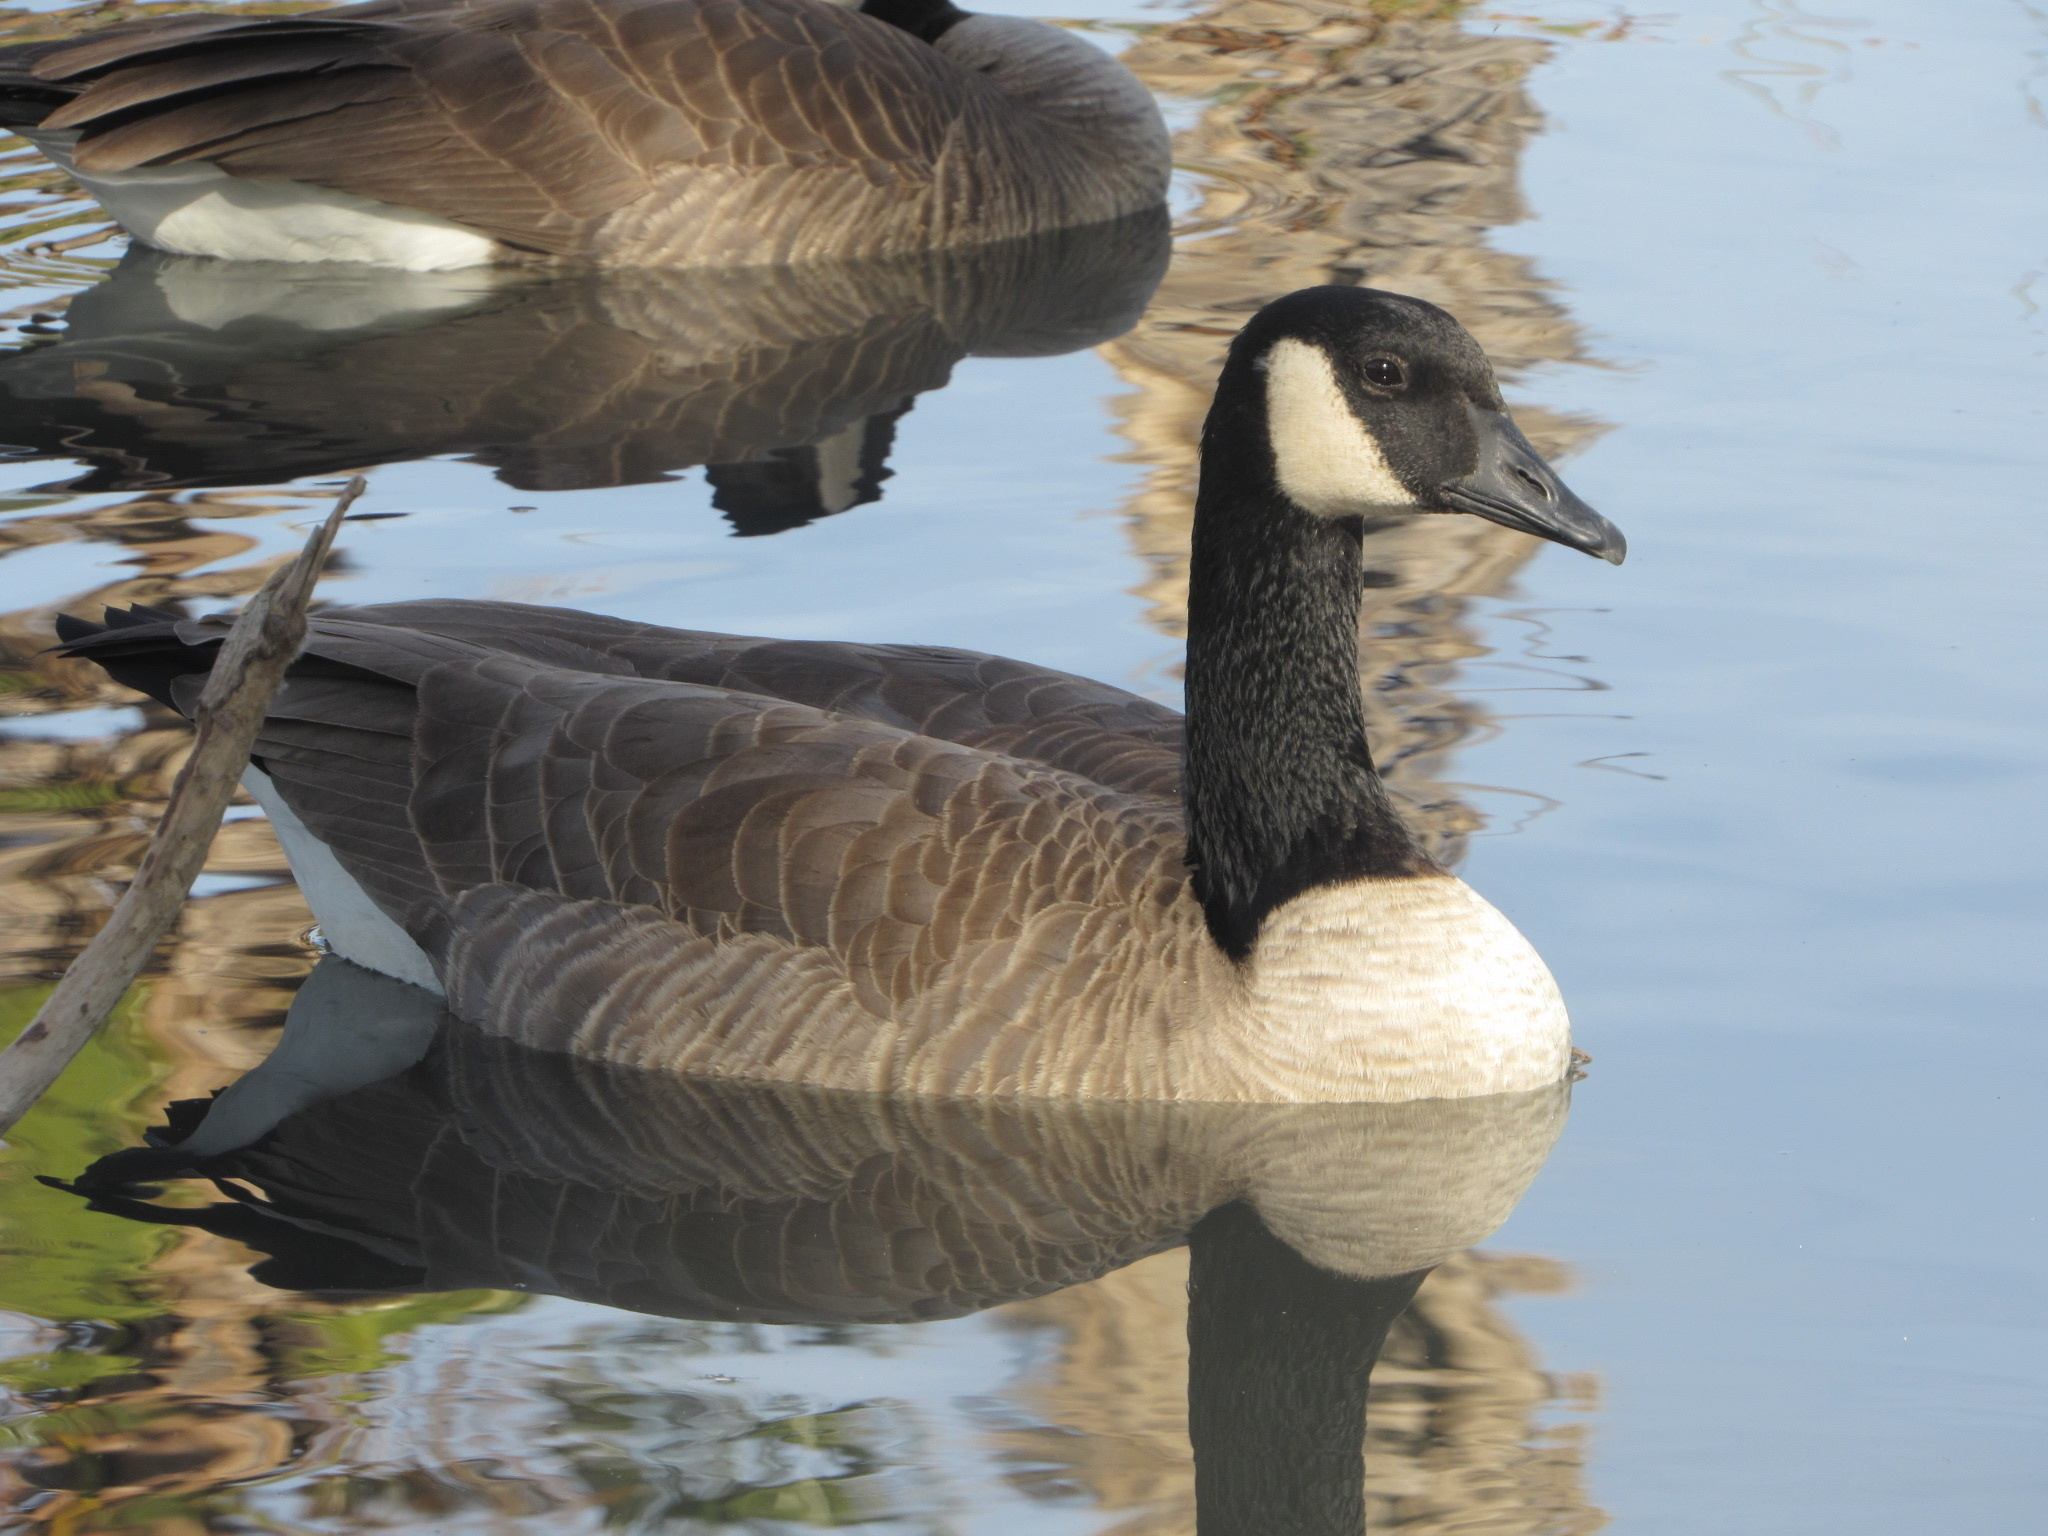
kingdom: Animalia
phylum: Chordata
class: Aves
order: Anseriformes
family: Anatidae
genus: Branta
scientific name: Branta canadensis
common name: Canada goose
